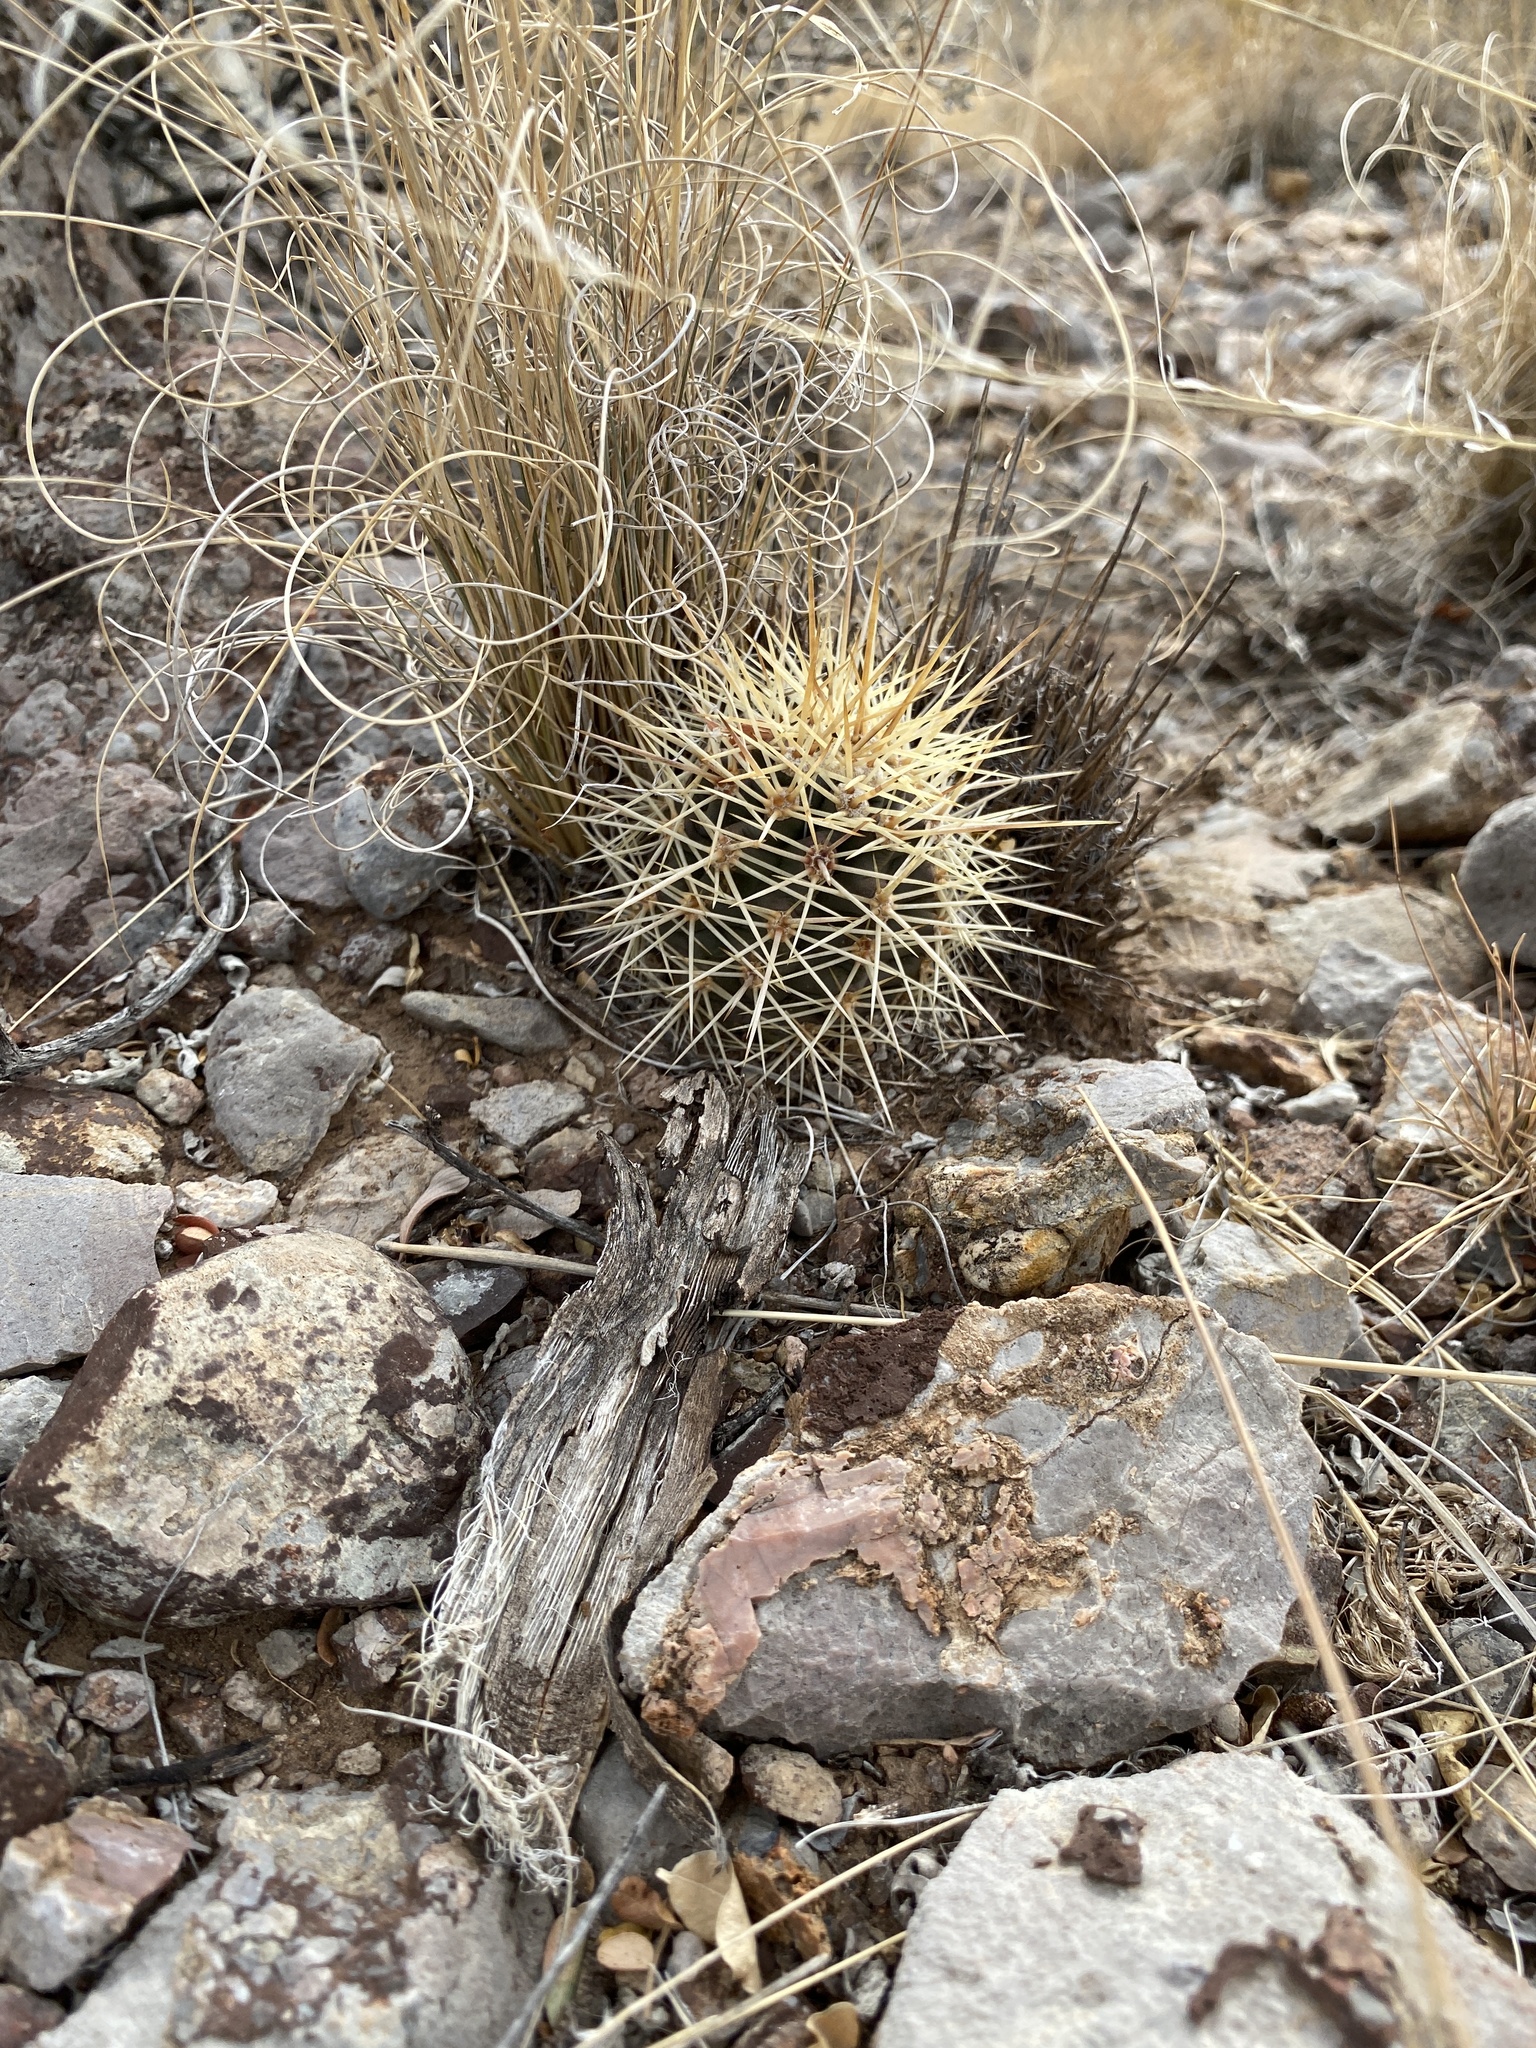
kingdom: Plantae
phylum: Tracheophyta
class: Magnoliopsida
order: Caryophyllales
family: Cactaceae
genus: Echinocereus
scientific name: Echinocereus coccineus
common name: Scarlet hedgehog cactus
